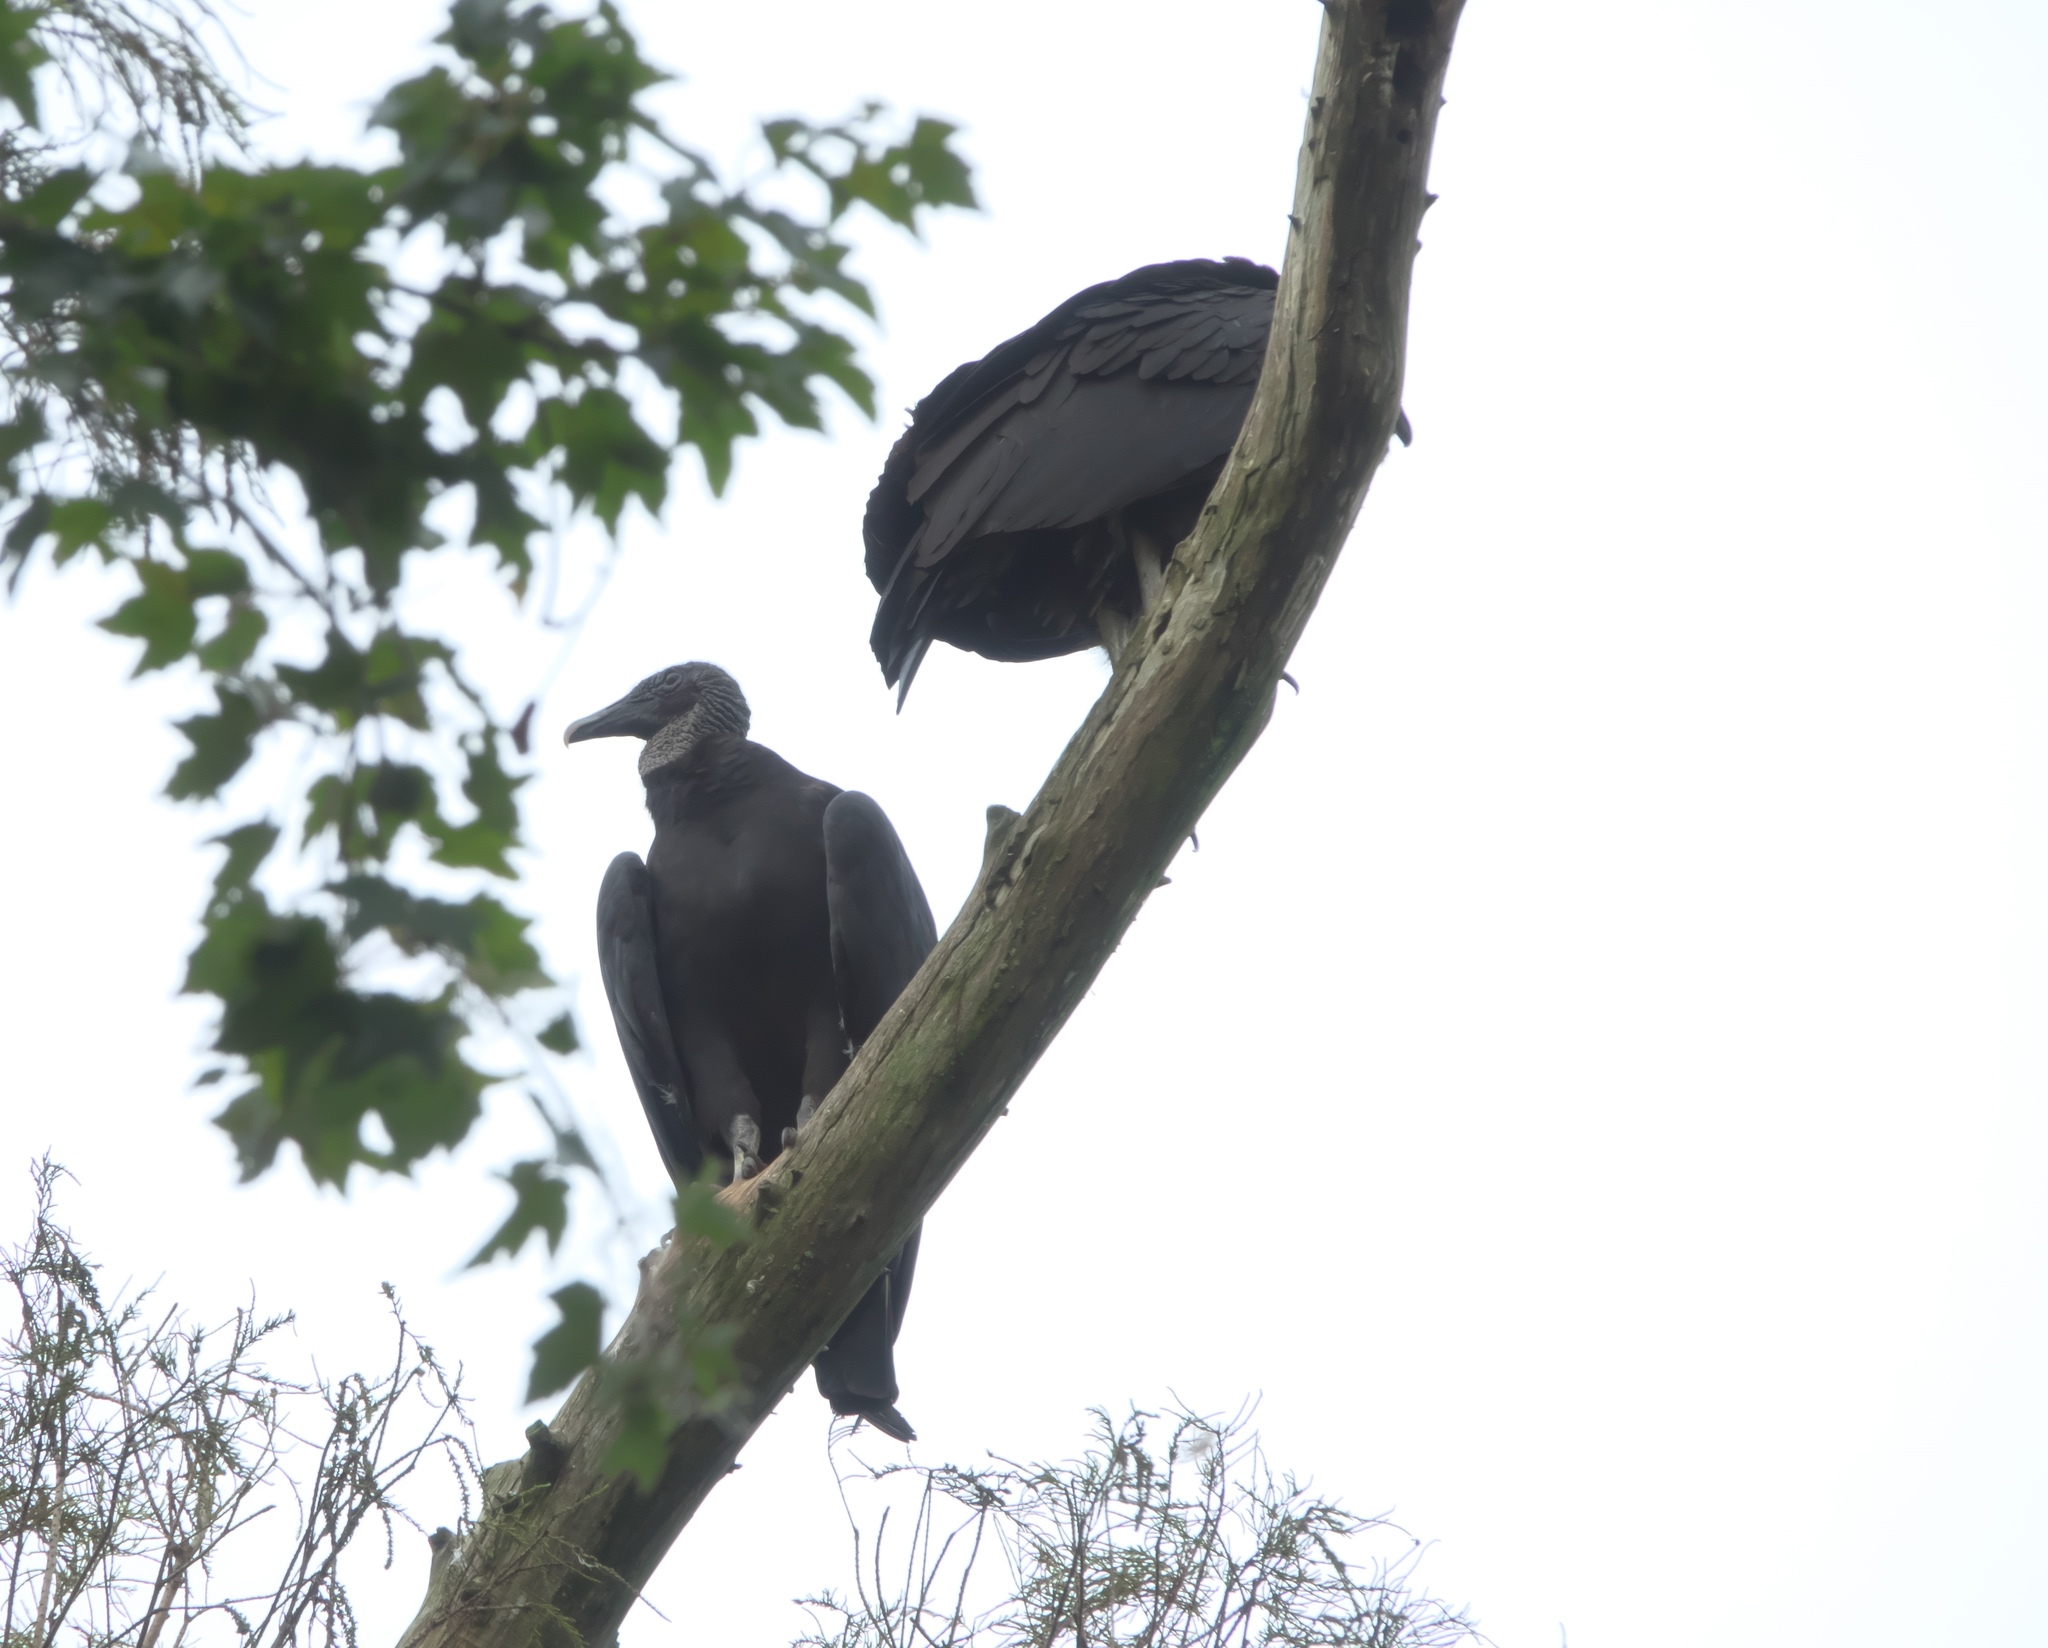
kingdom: Animalia
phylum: Chordata
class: Aves
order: Accipitriformes
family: Cathartidae
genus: Coragyps
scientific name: Coragyps atratus
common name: Black vulture
